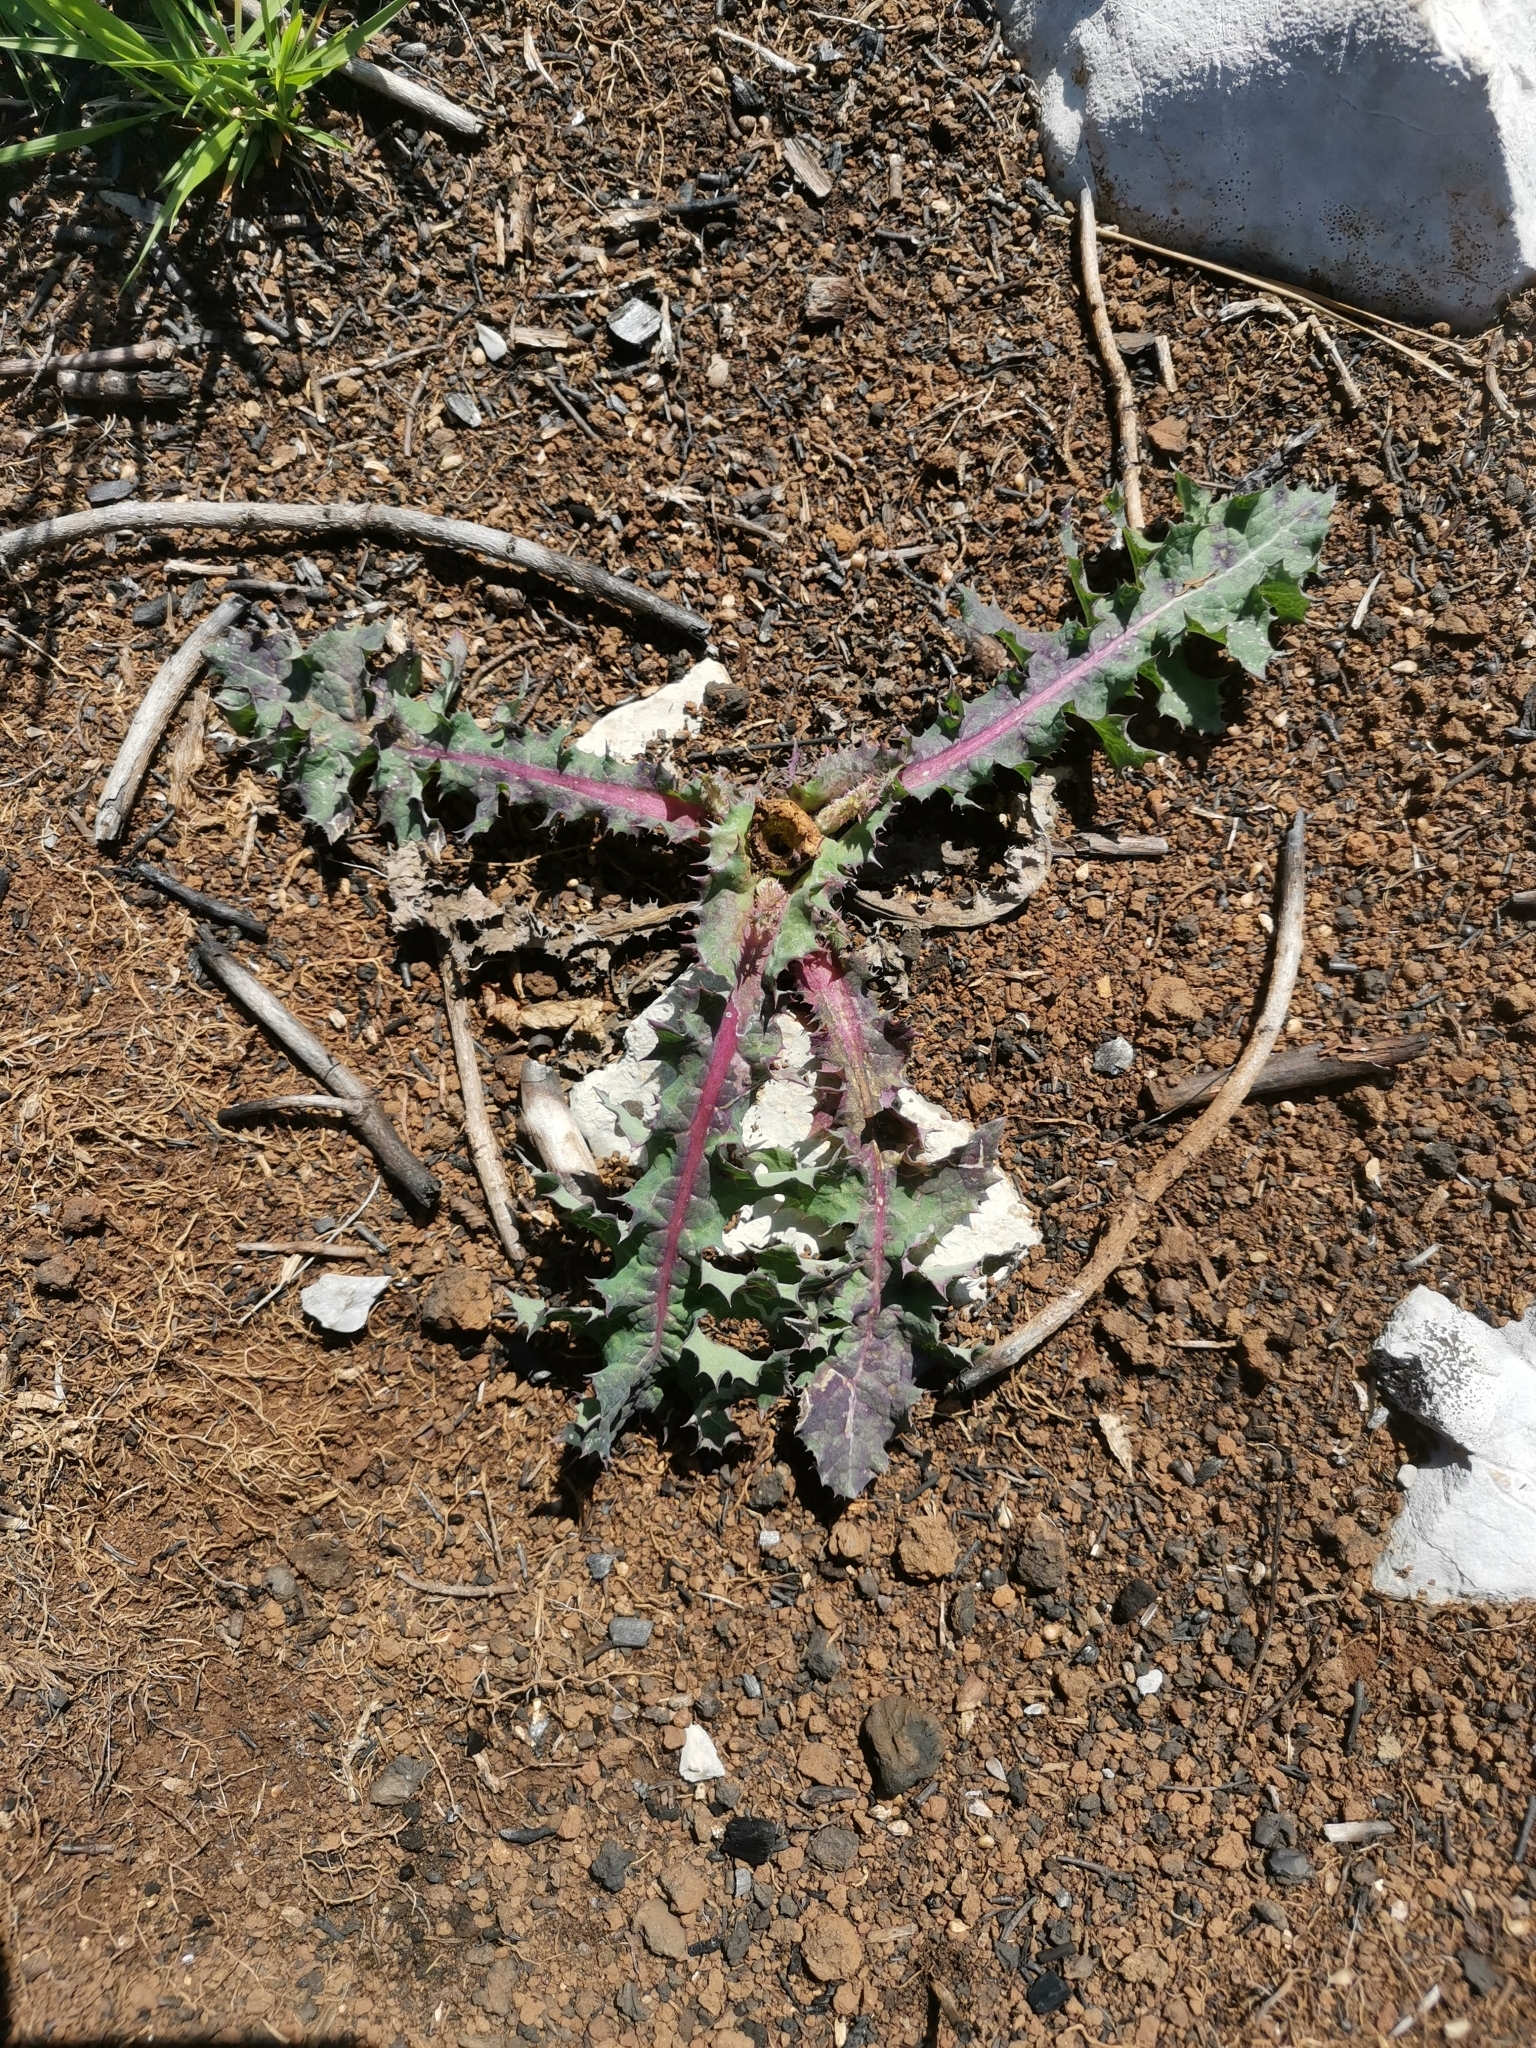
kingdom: Plantae
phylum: Tracheophyta
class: Magnoliopsida
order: Asterales
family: Asteraceae
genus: Sonchus
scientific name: Sonchus asper
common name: Prickly sow-thistle
